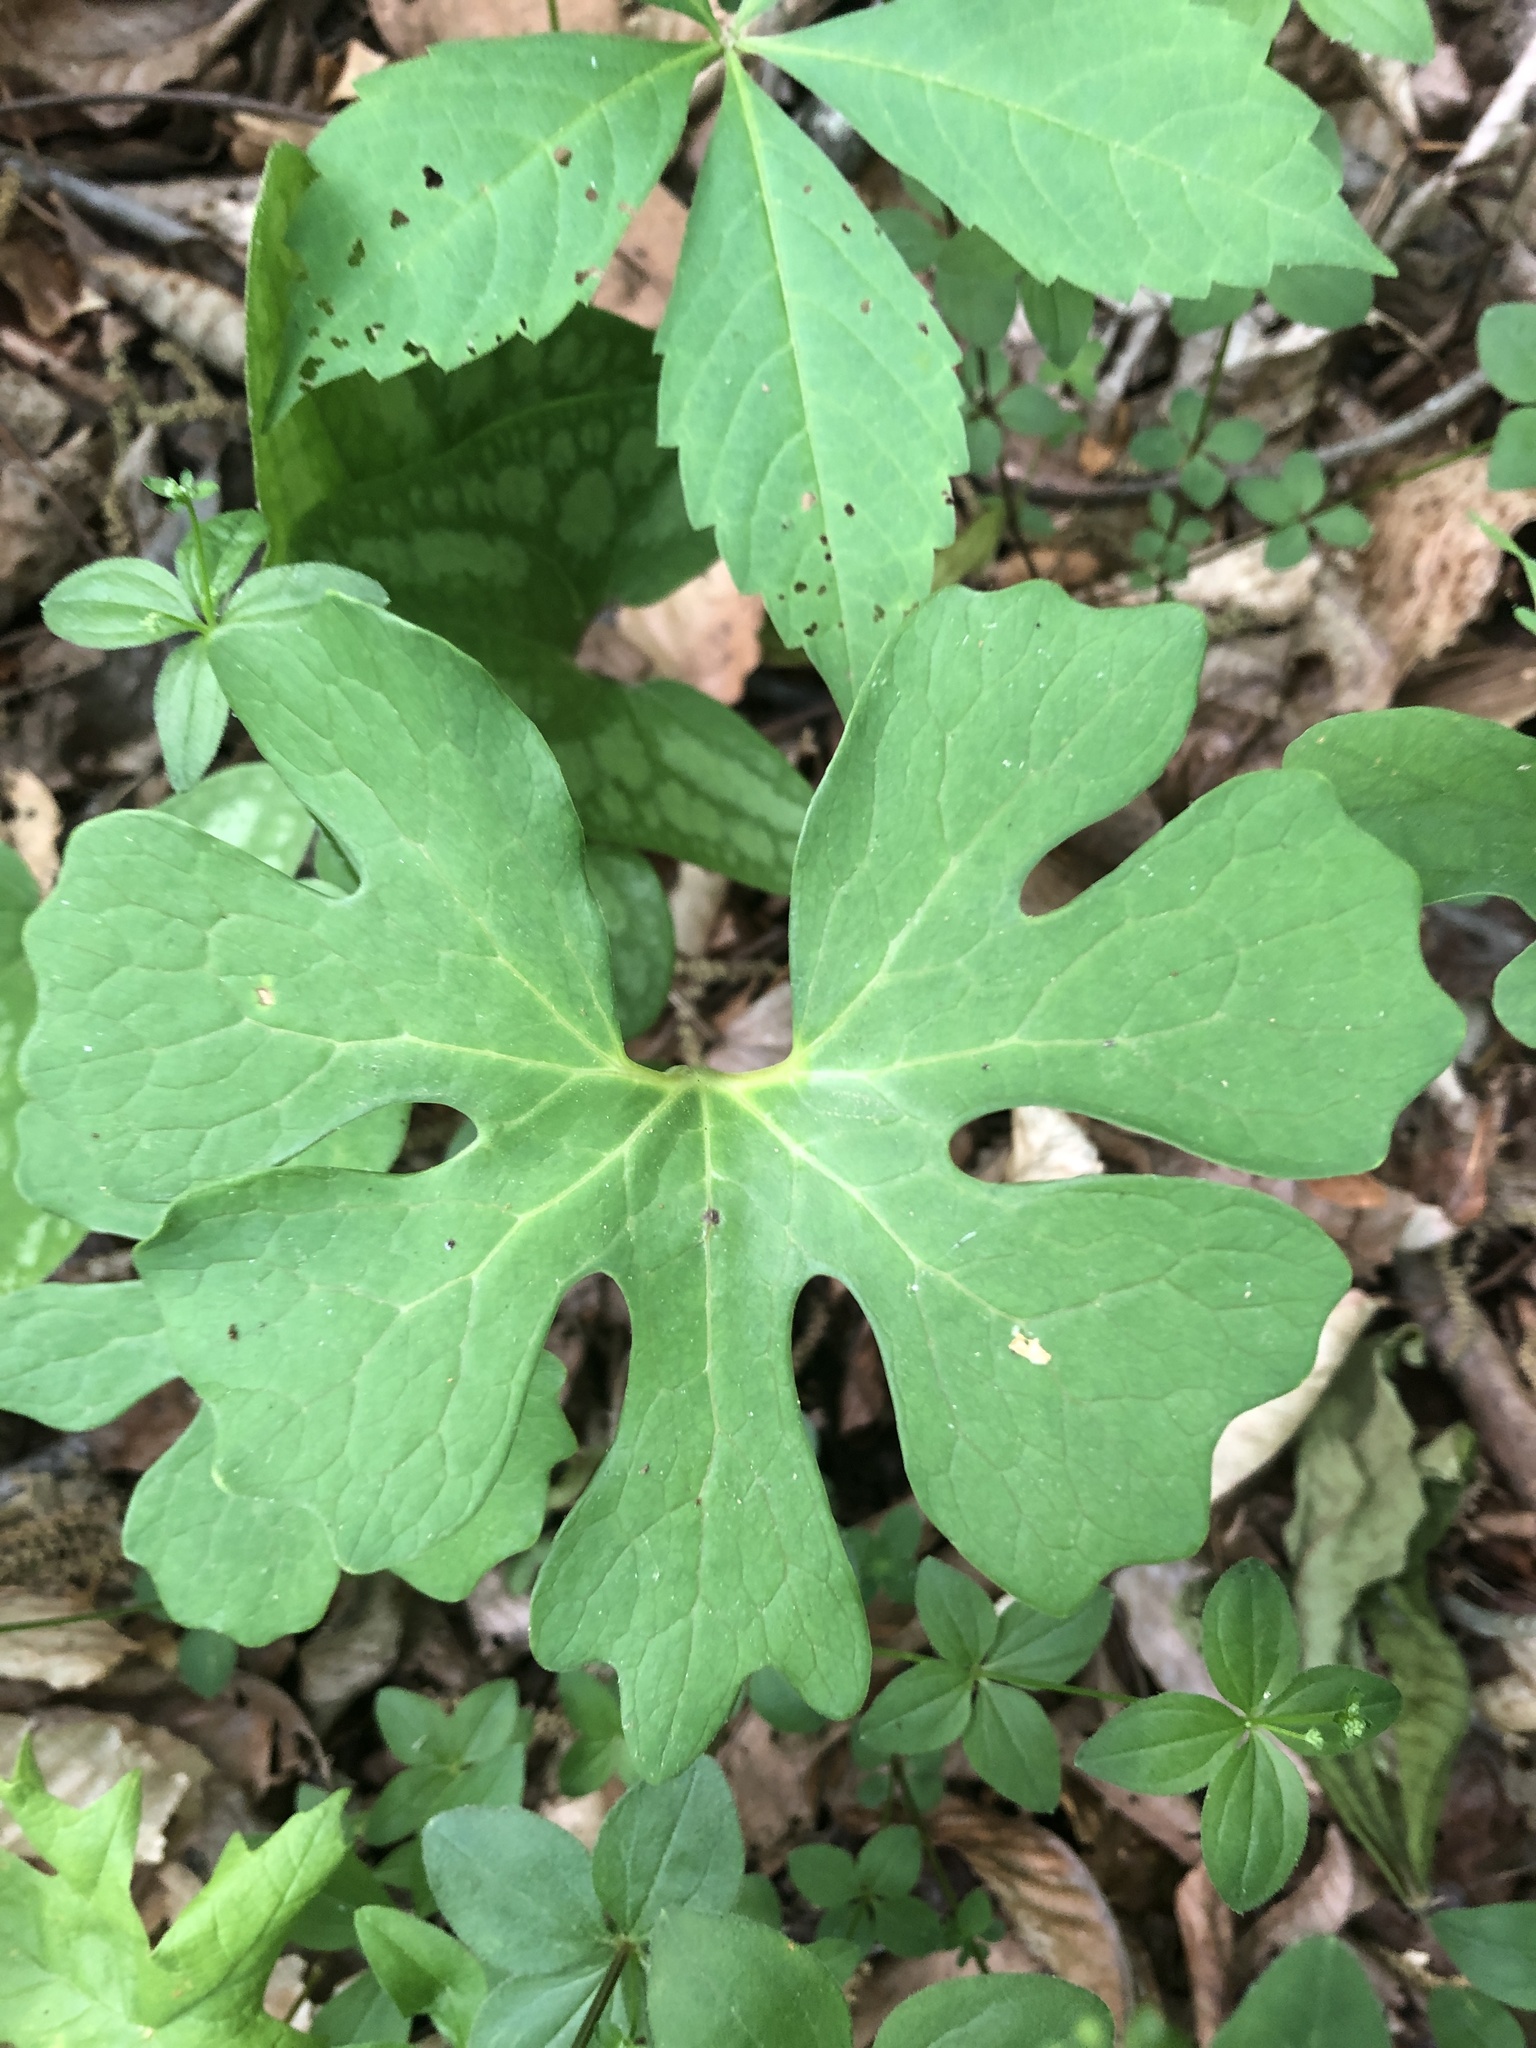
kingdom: Plantae
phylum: Tracheophyta
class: Magnoliopsida
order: Ranunculales
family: Papaveraceae
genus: Sanguinaria
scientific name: Sanguinaria canadensis
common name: Bloodroot
